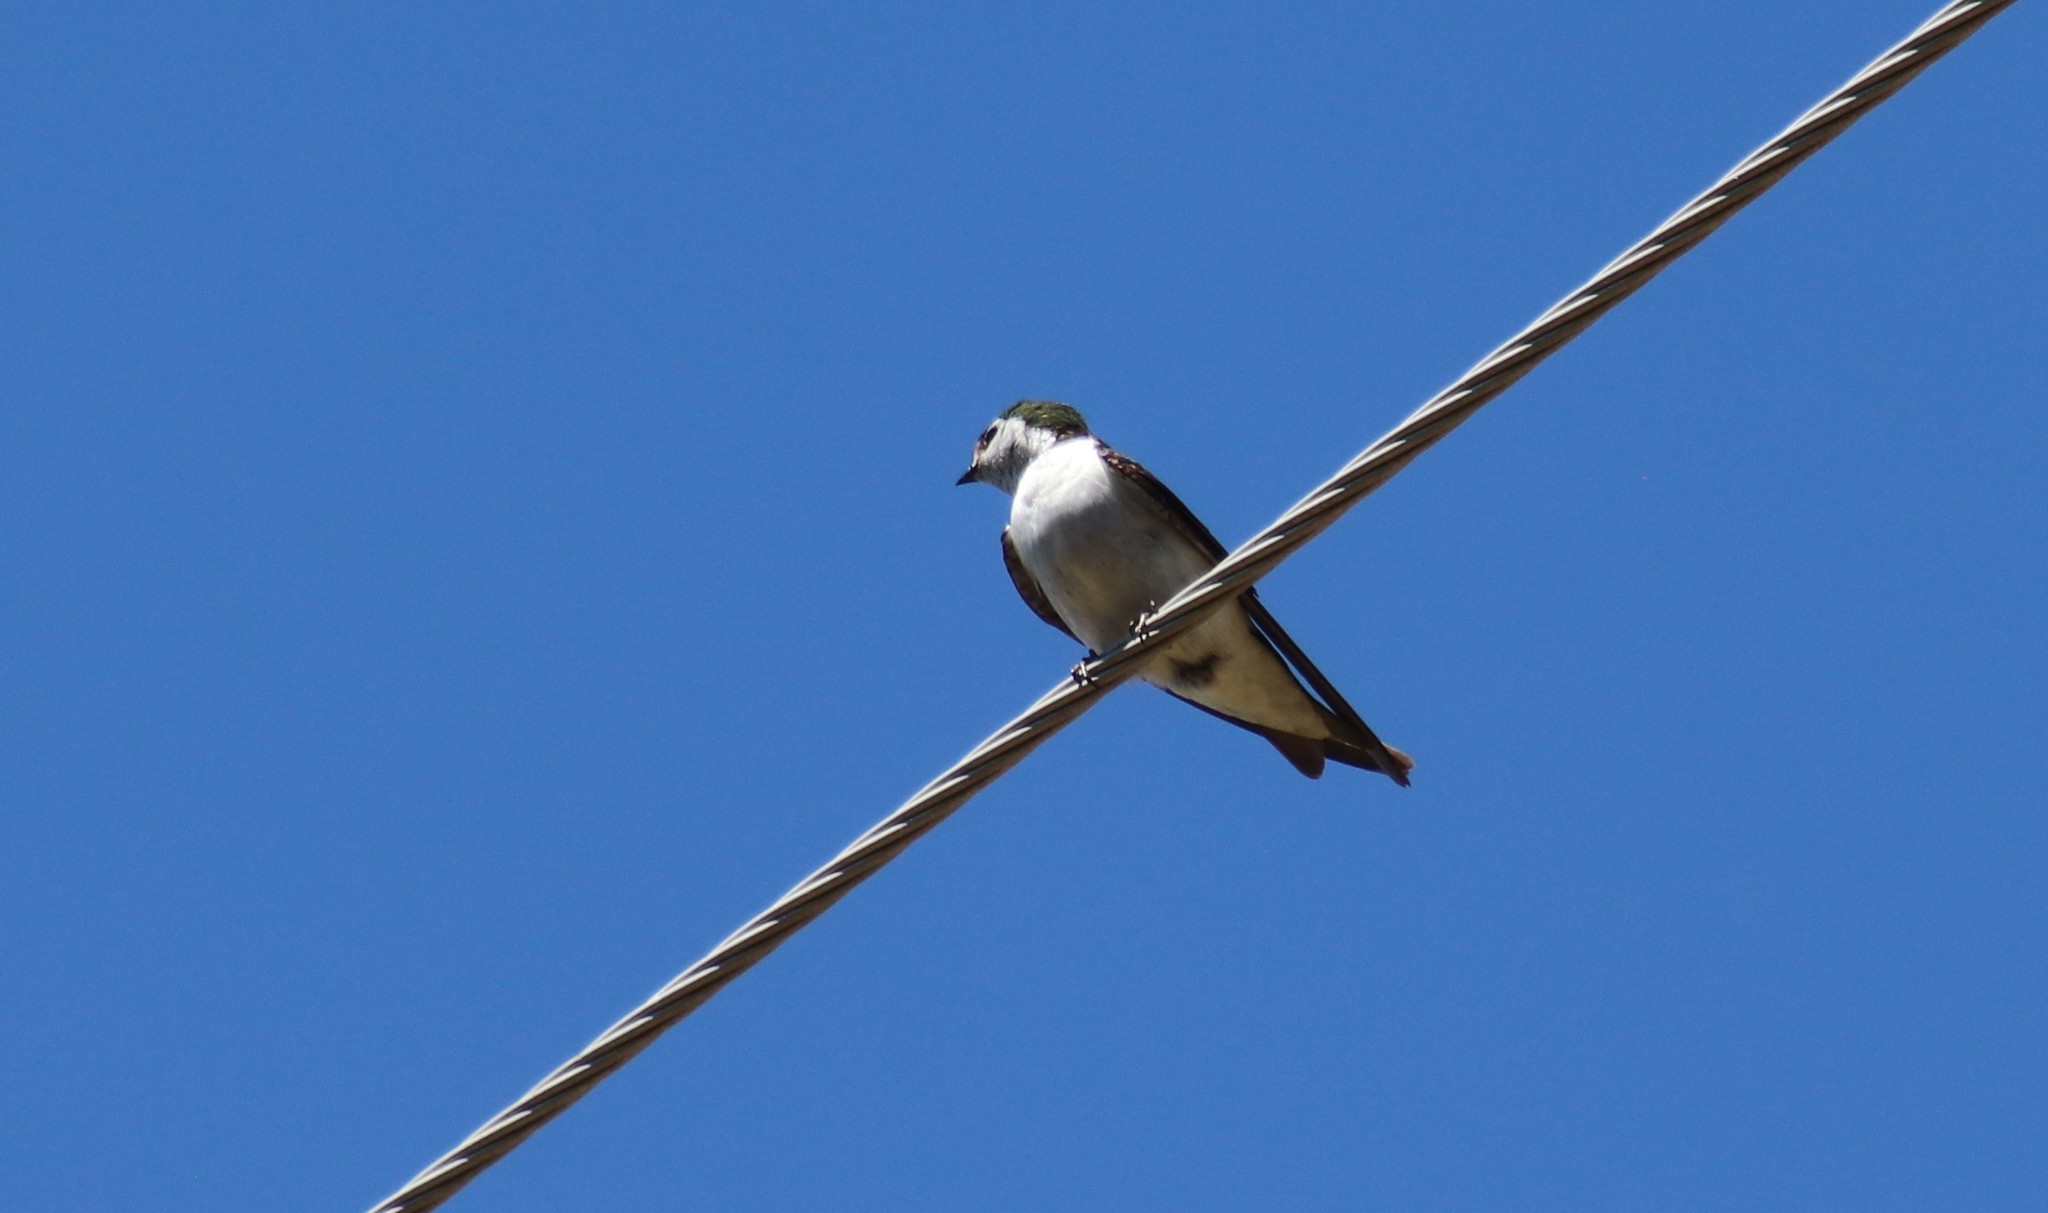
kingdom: Animalia
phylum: Chordata
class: Aves
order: Passeriformes
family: Hirundinidae
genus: Tachycineta
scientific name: Tachycineta thalassina
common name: Violet-green swallow
